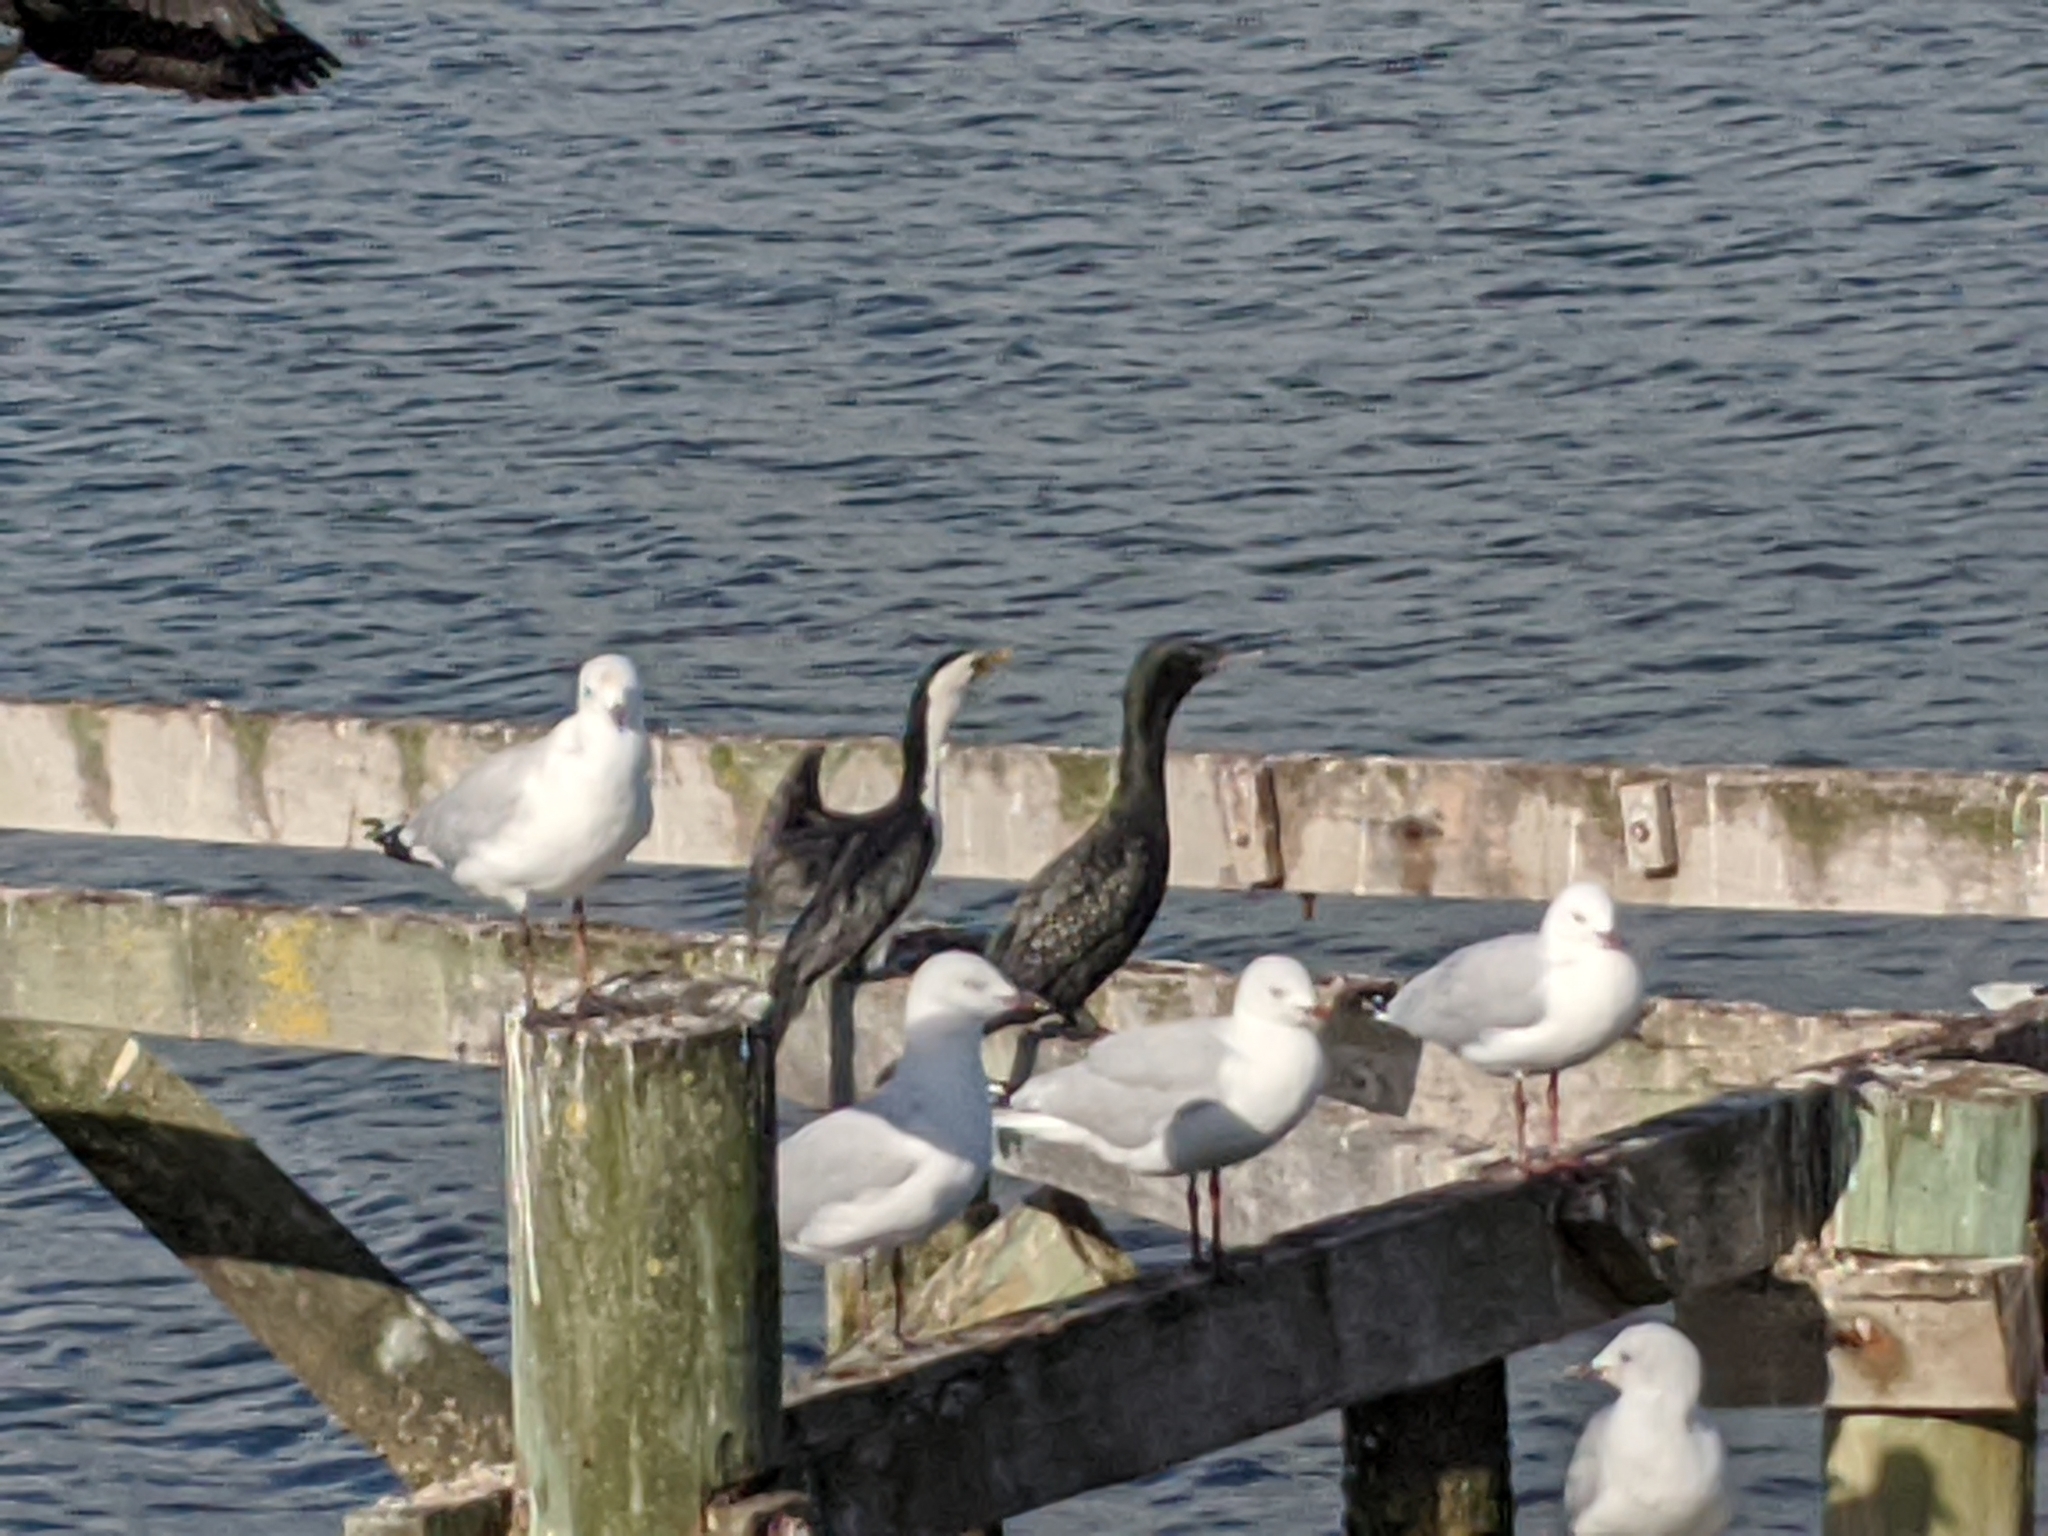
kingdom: Animalia
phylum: Chordata
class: Aves
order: Suliformes
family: Phalacrocoracidae
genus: Phalacrocorax
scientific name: Phalacrocorax sulcirostris
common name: Little black cormorant
